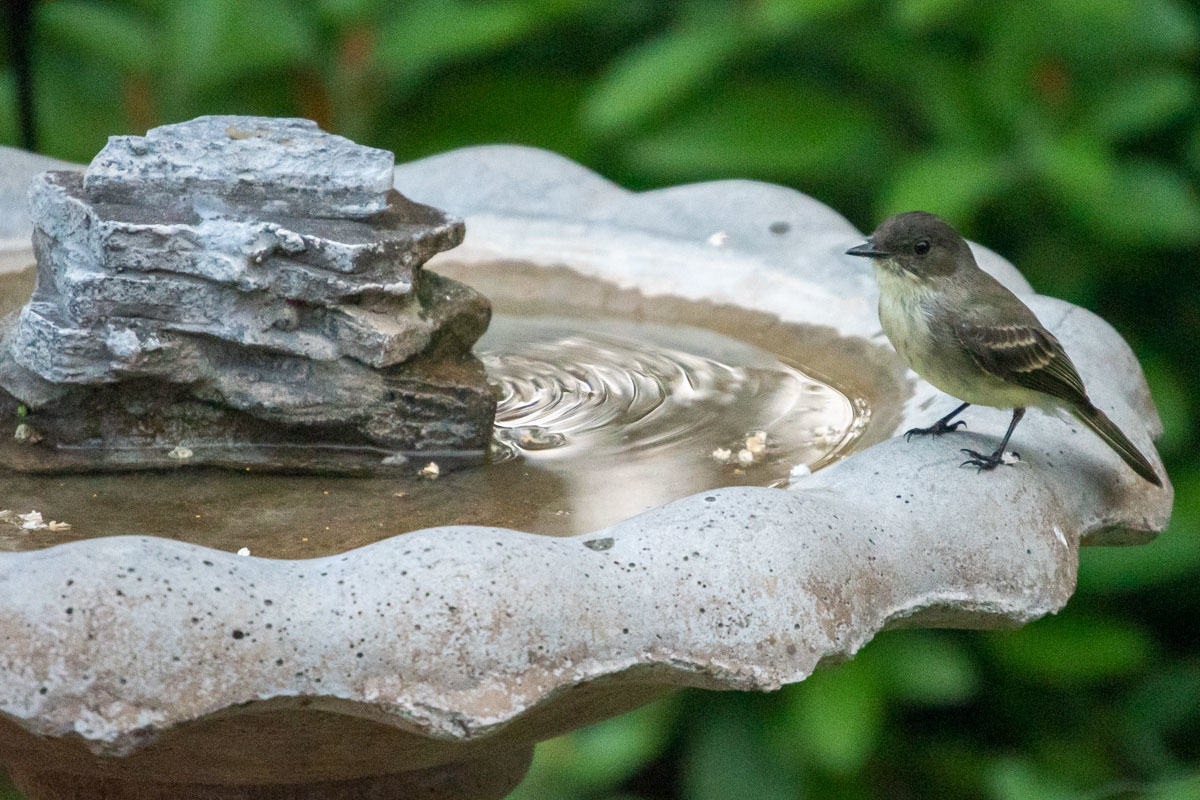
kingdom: Animalia
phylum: Chordata
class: Aves
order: Passeriformes
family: Tyrannidae
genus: Sayornis
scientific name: Sayornis phoebe
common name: Eastern phoebe
